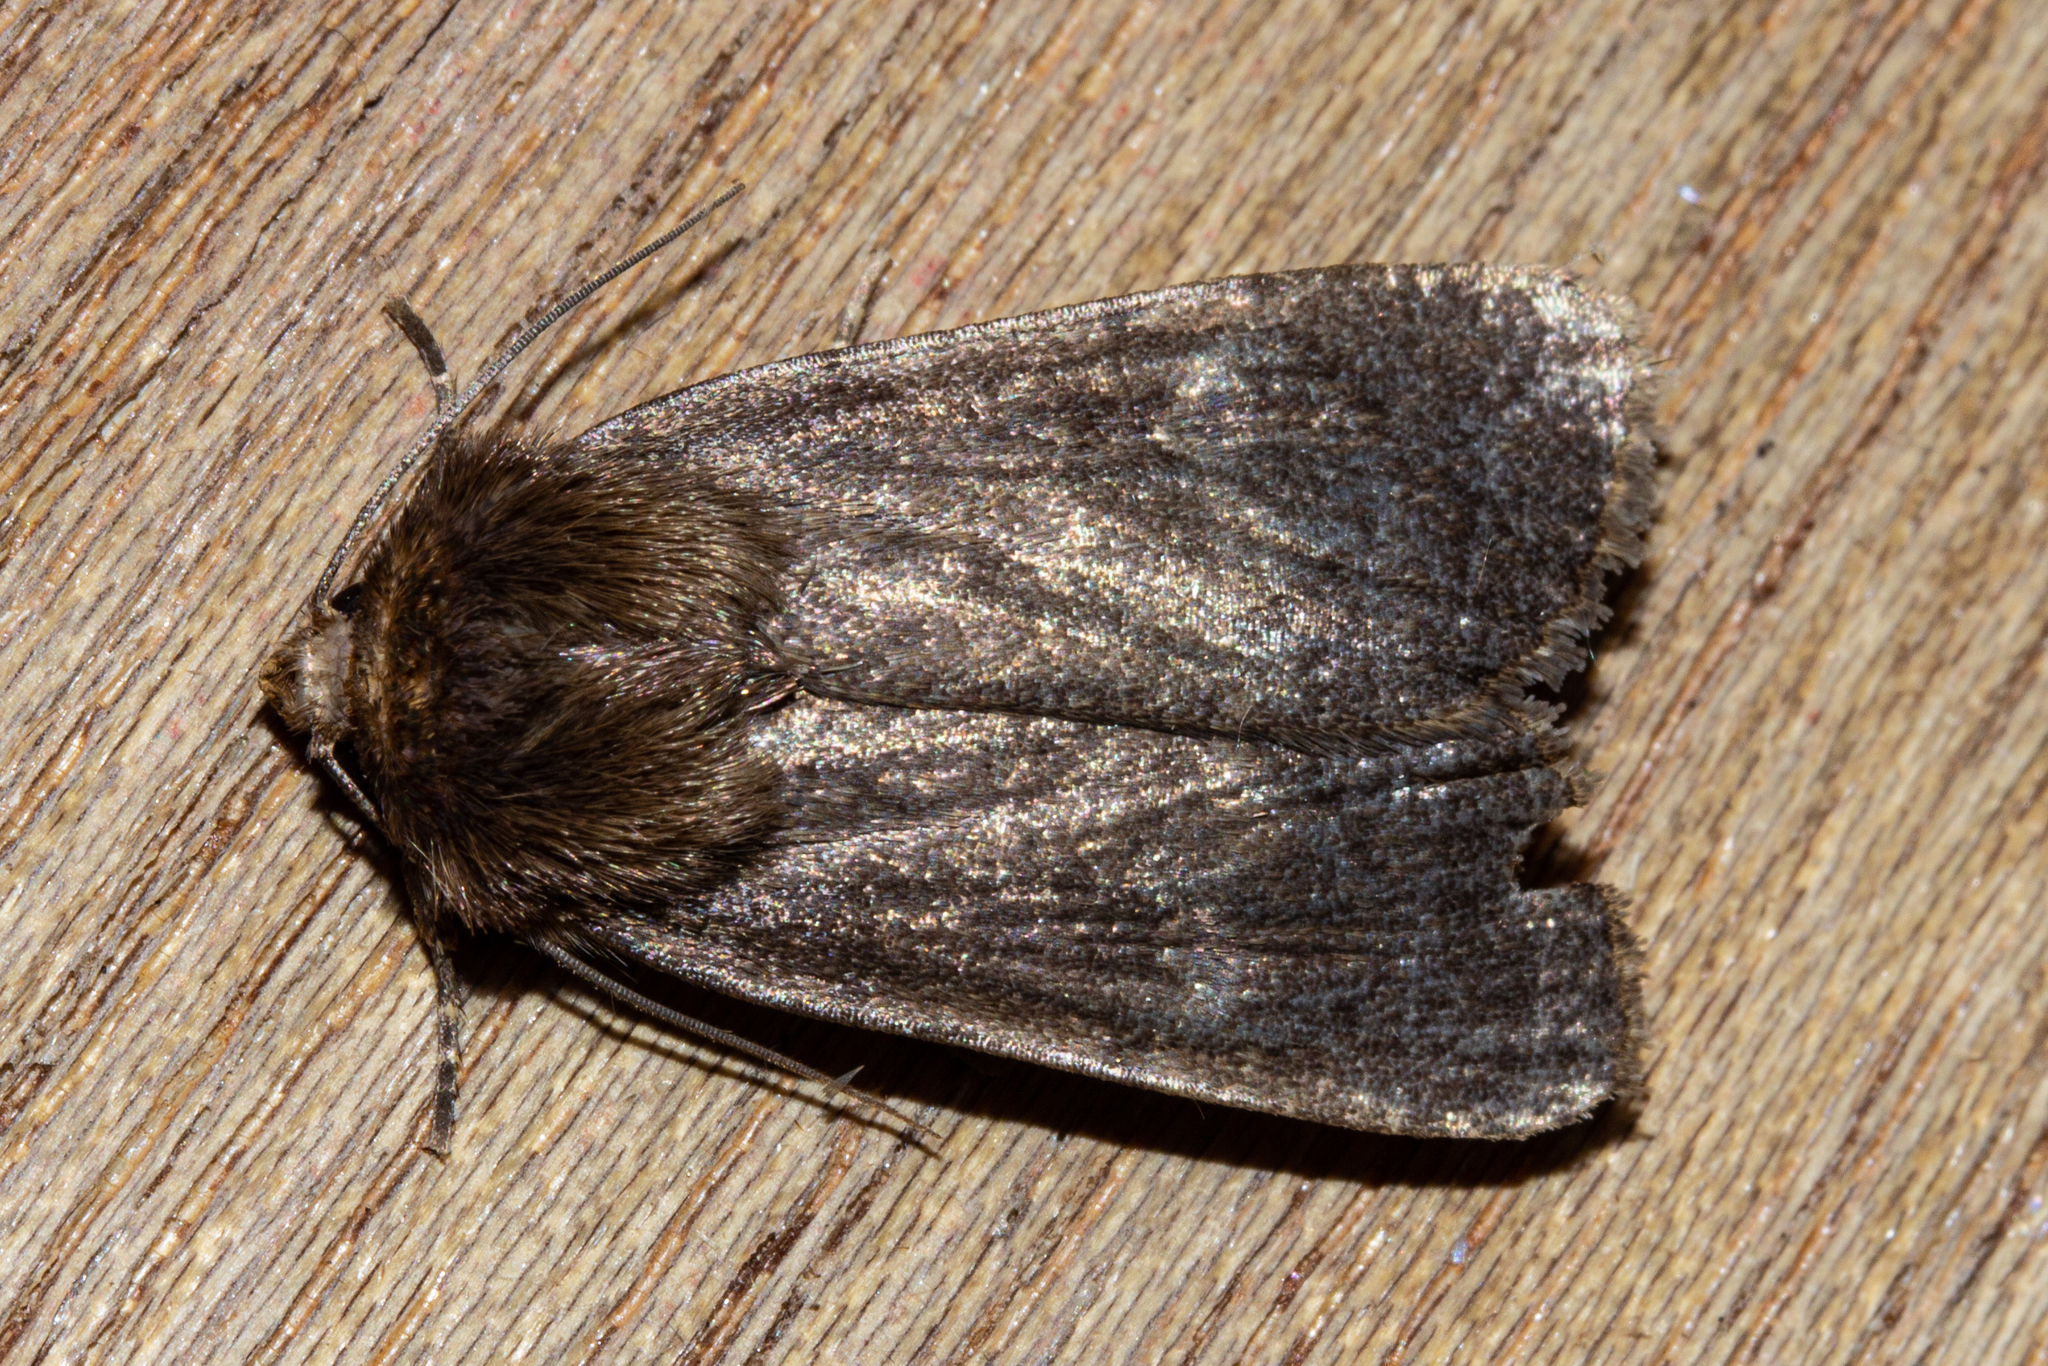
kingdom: Animalia
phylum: Arthropoda
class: Insecta
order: Lepidoptera
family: Noctuidae
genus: Bityla
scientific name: Bityla defigurata
